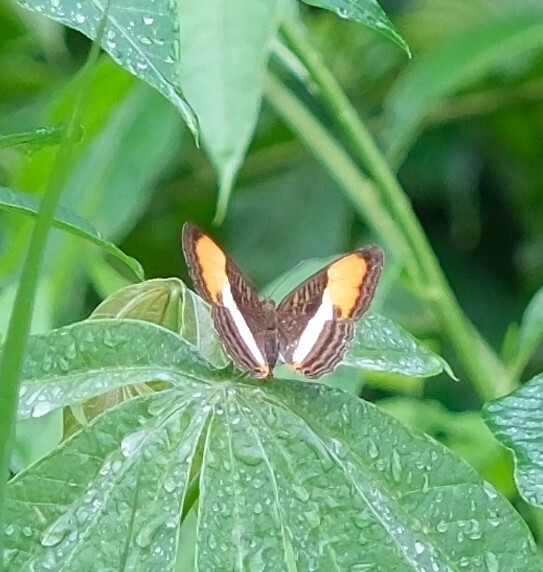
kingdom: Animalia
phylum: Arthropoda
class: Insecta
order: Lepidoptera
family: Nymphalidae
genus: Limenitis
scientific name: Limenitis cytherea
